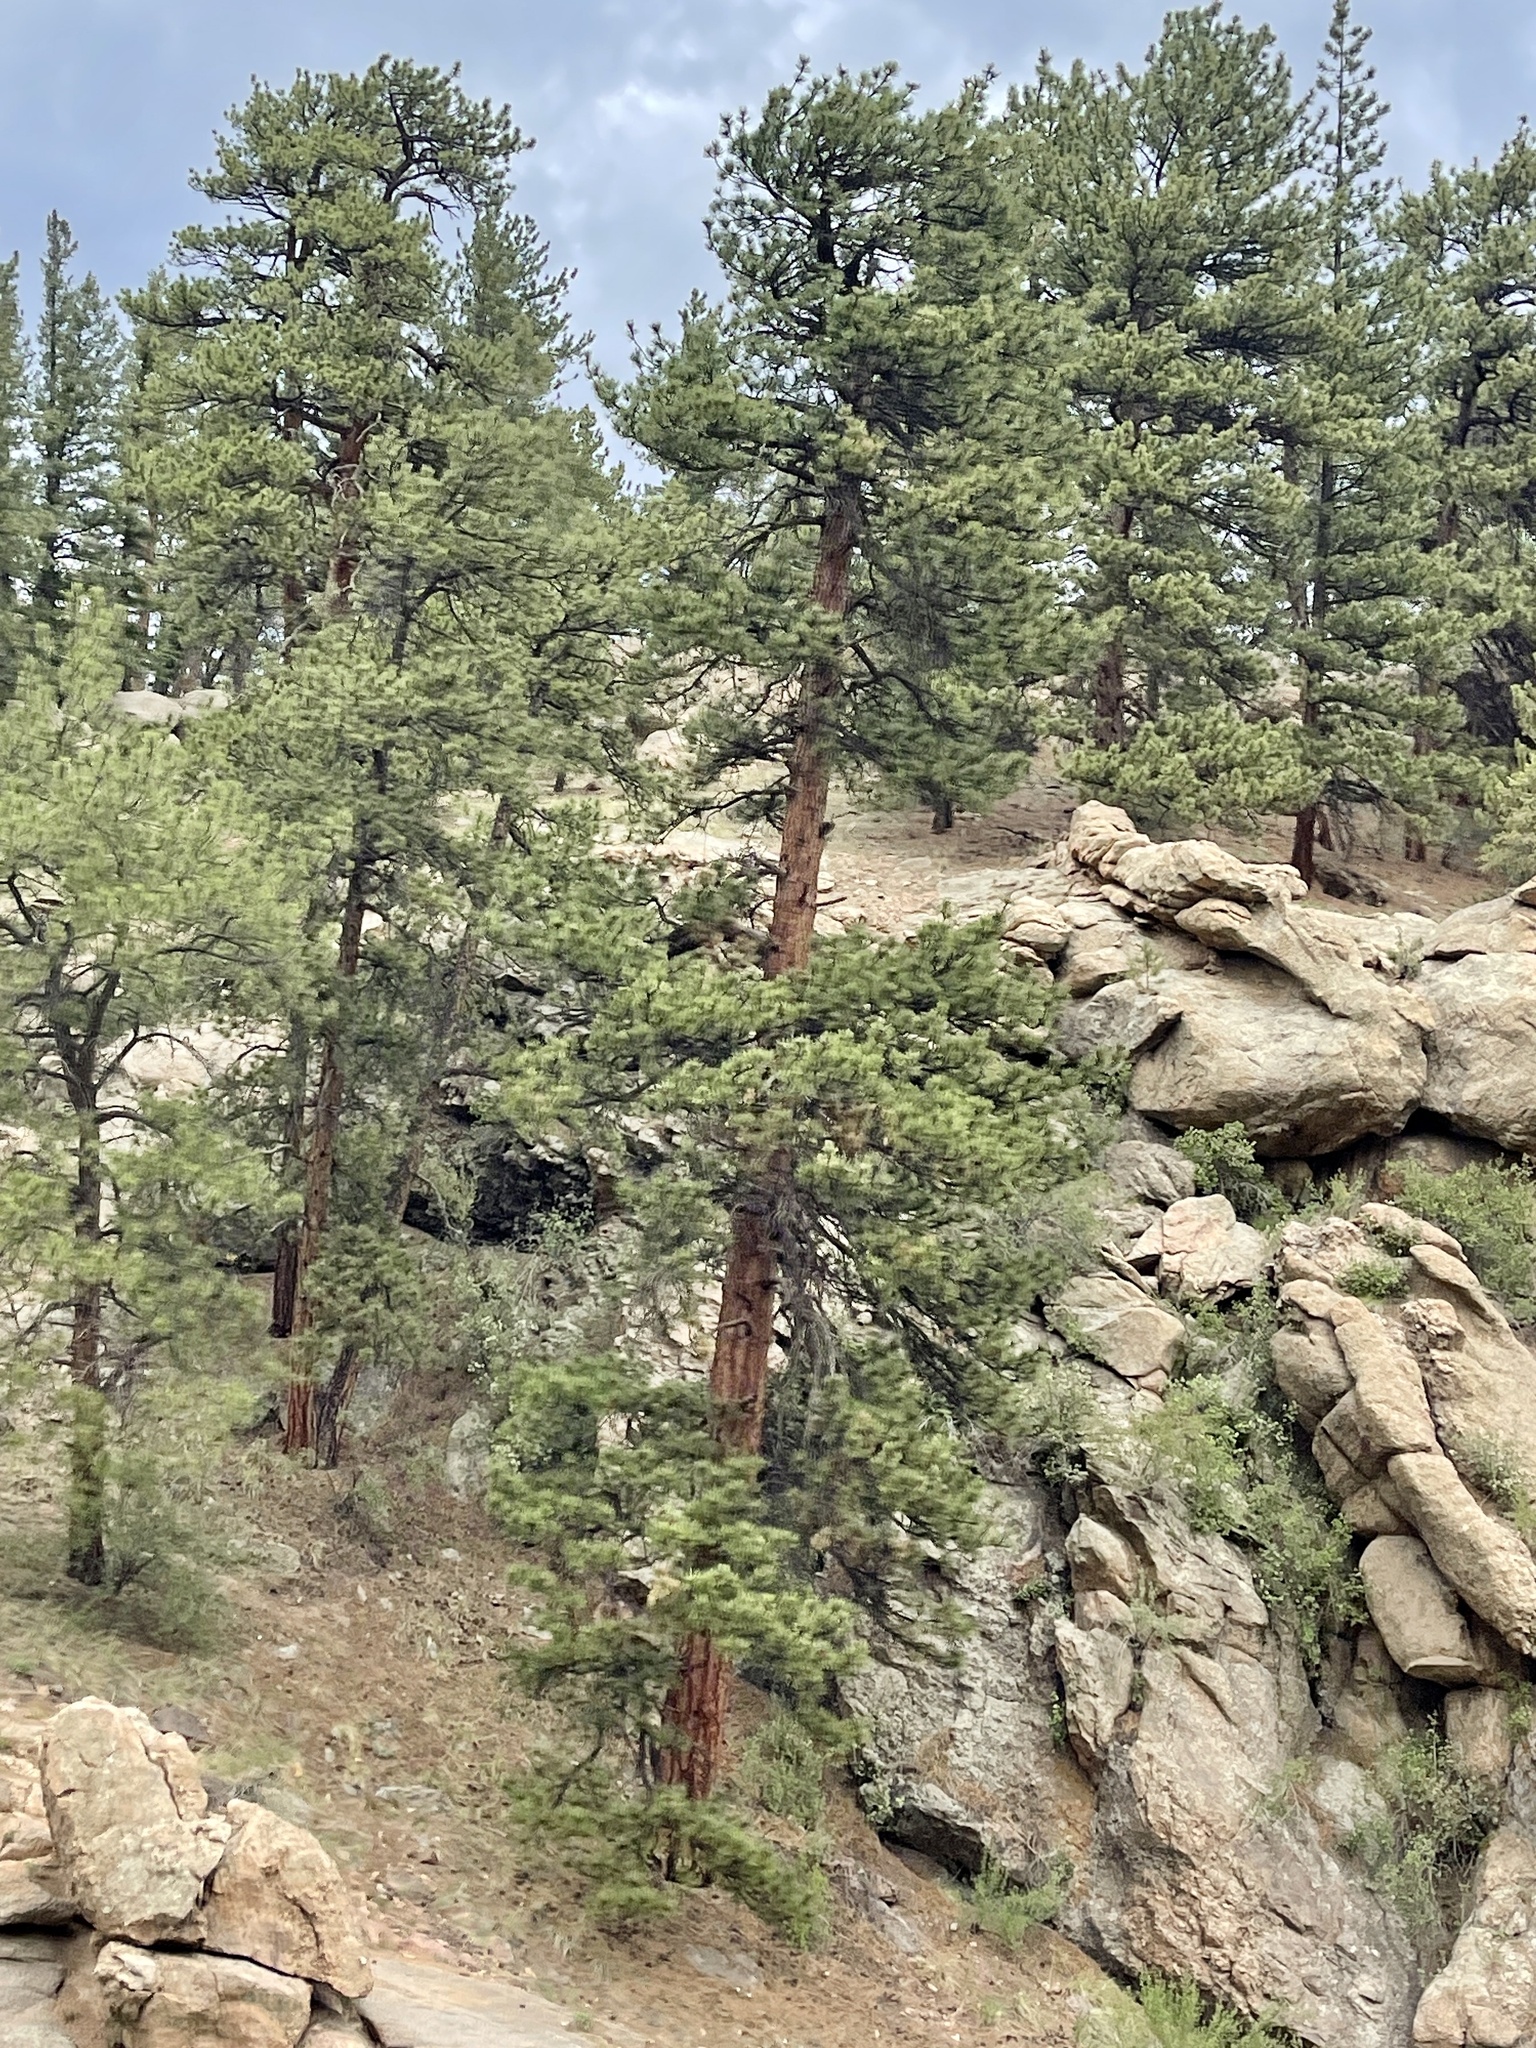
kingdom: Plantae
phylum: Tracheophyta
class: Pinopsida
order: Pinales
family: Pinaceae
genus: Pinus
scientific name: Pinus ponderosa
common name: Western yellow-pine
